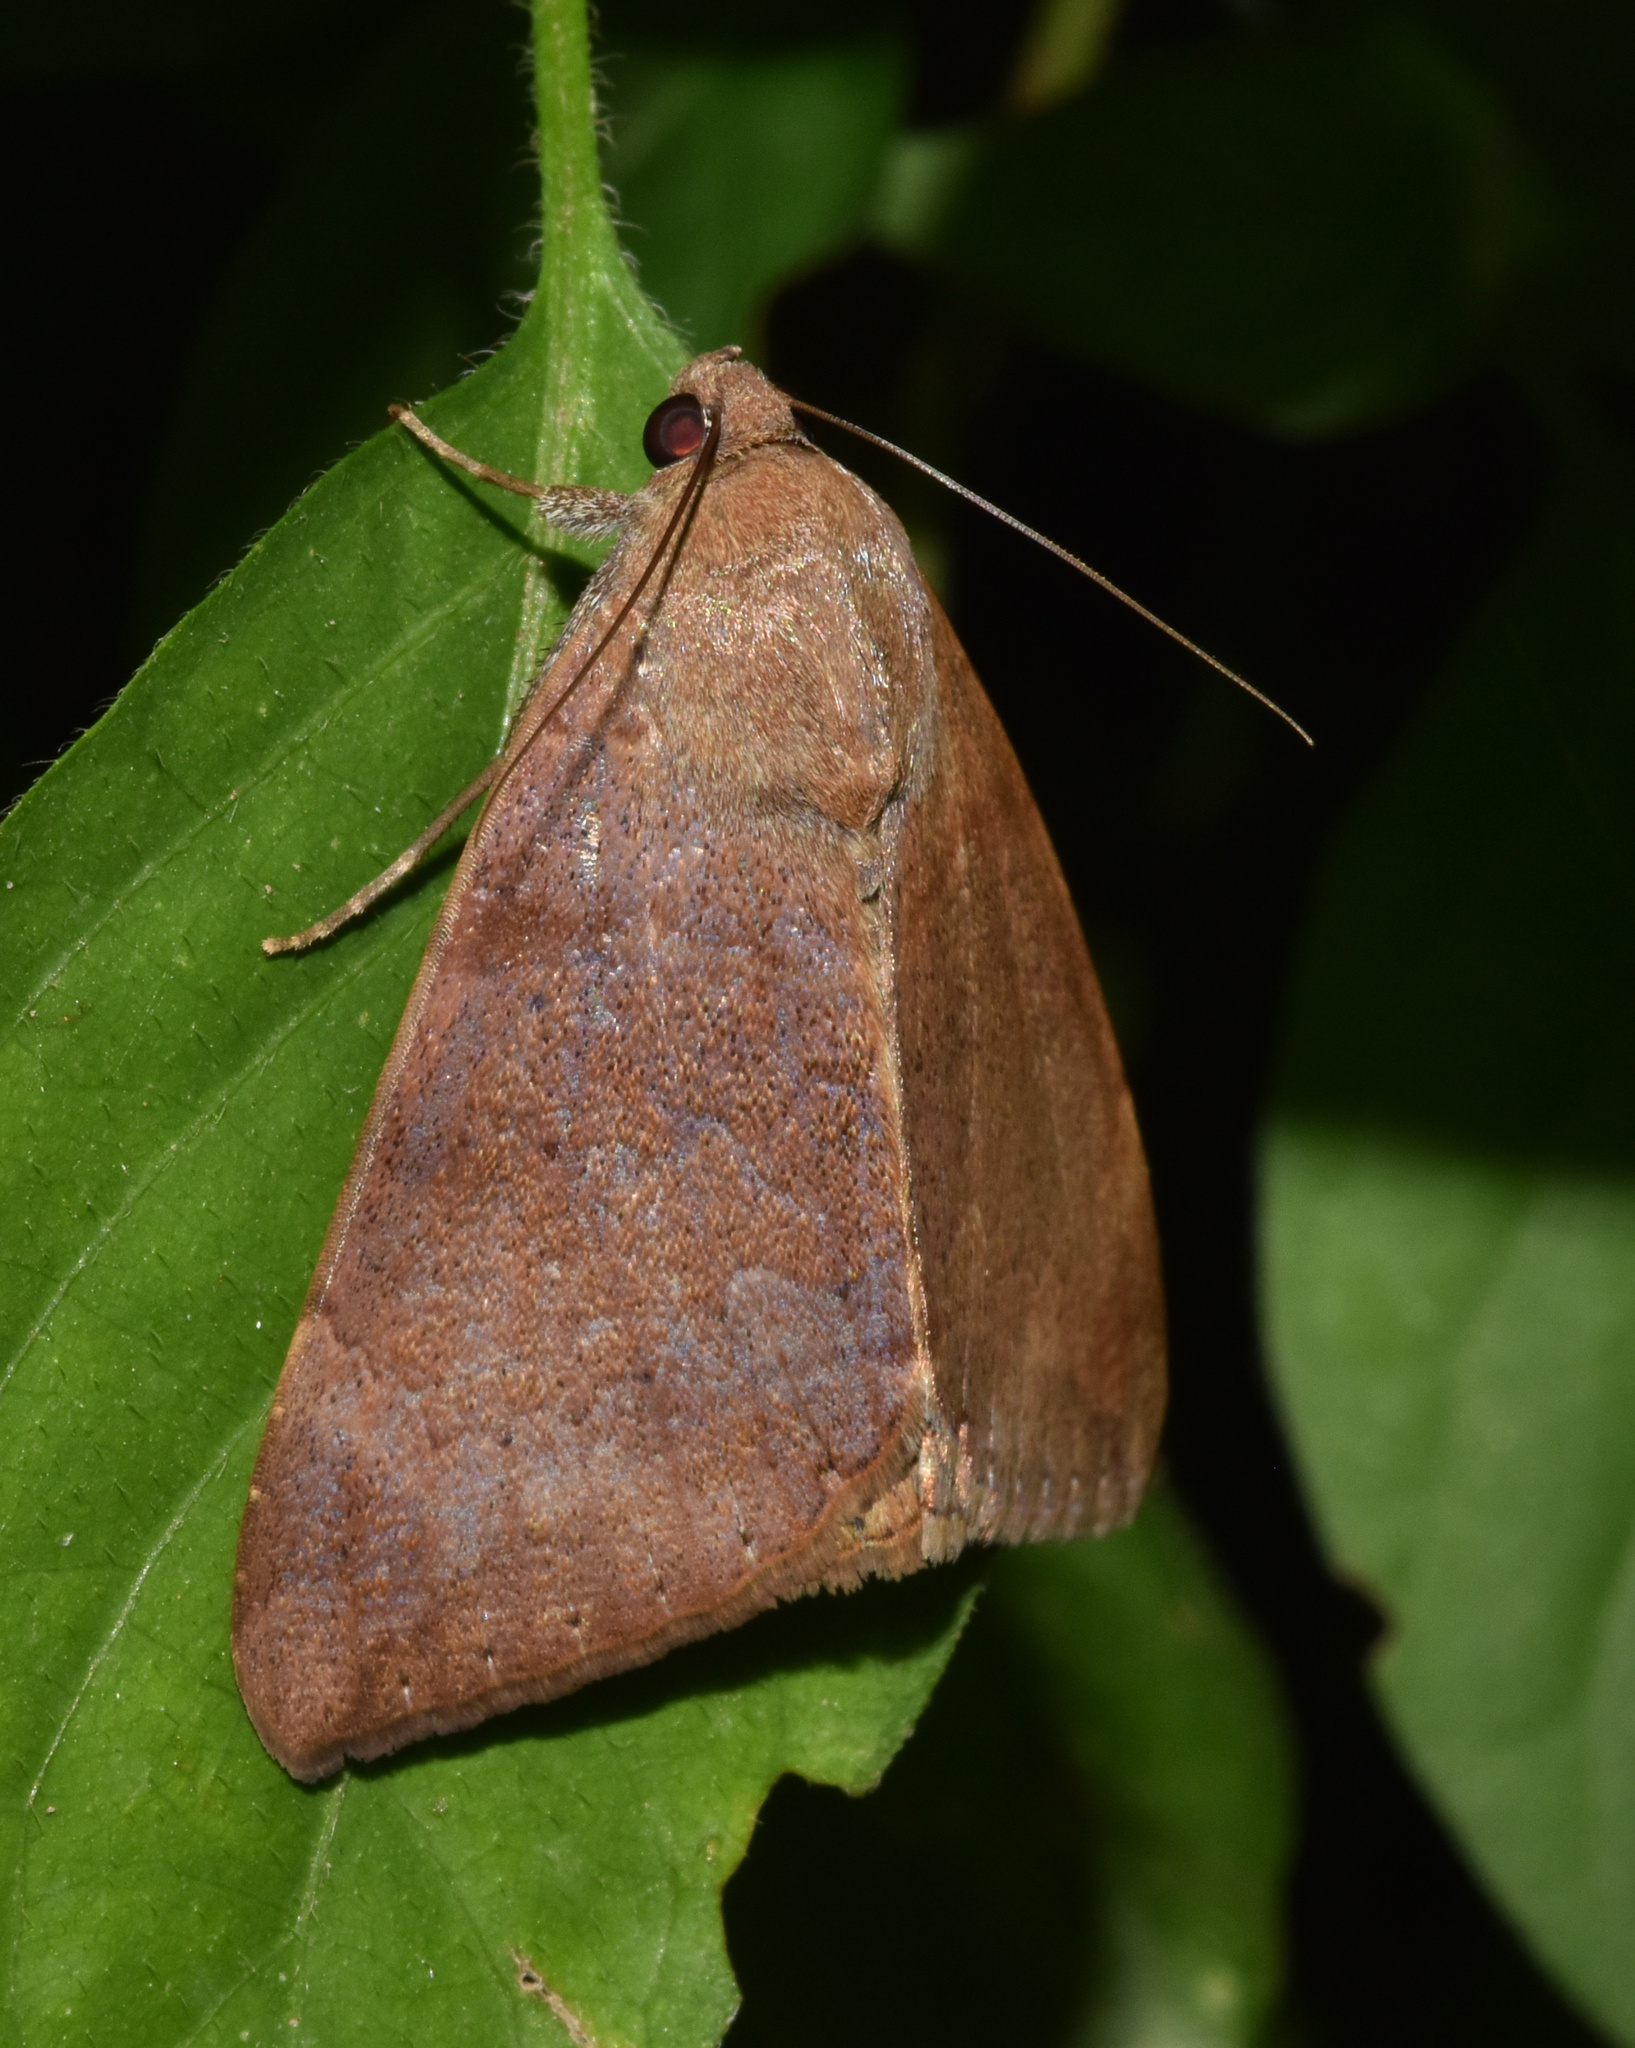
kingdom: Animalia
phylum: Arthropoda
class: Insecta
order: Lepidoptera
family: Erebidae
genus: Achaea
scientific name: Achaea lienardi
